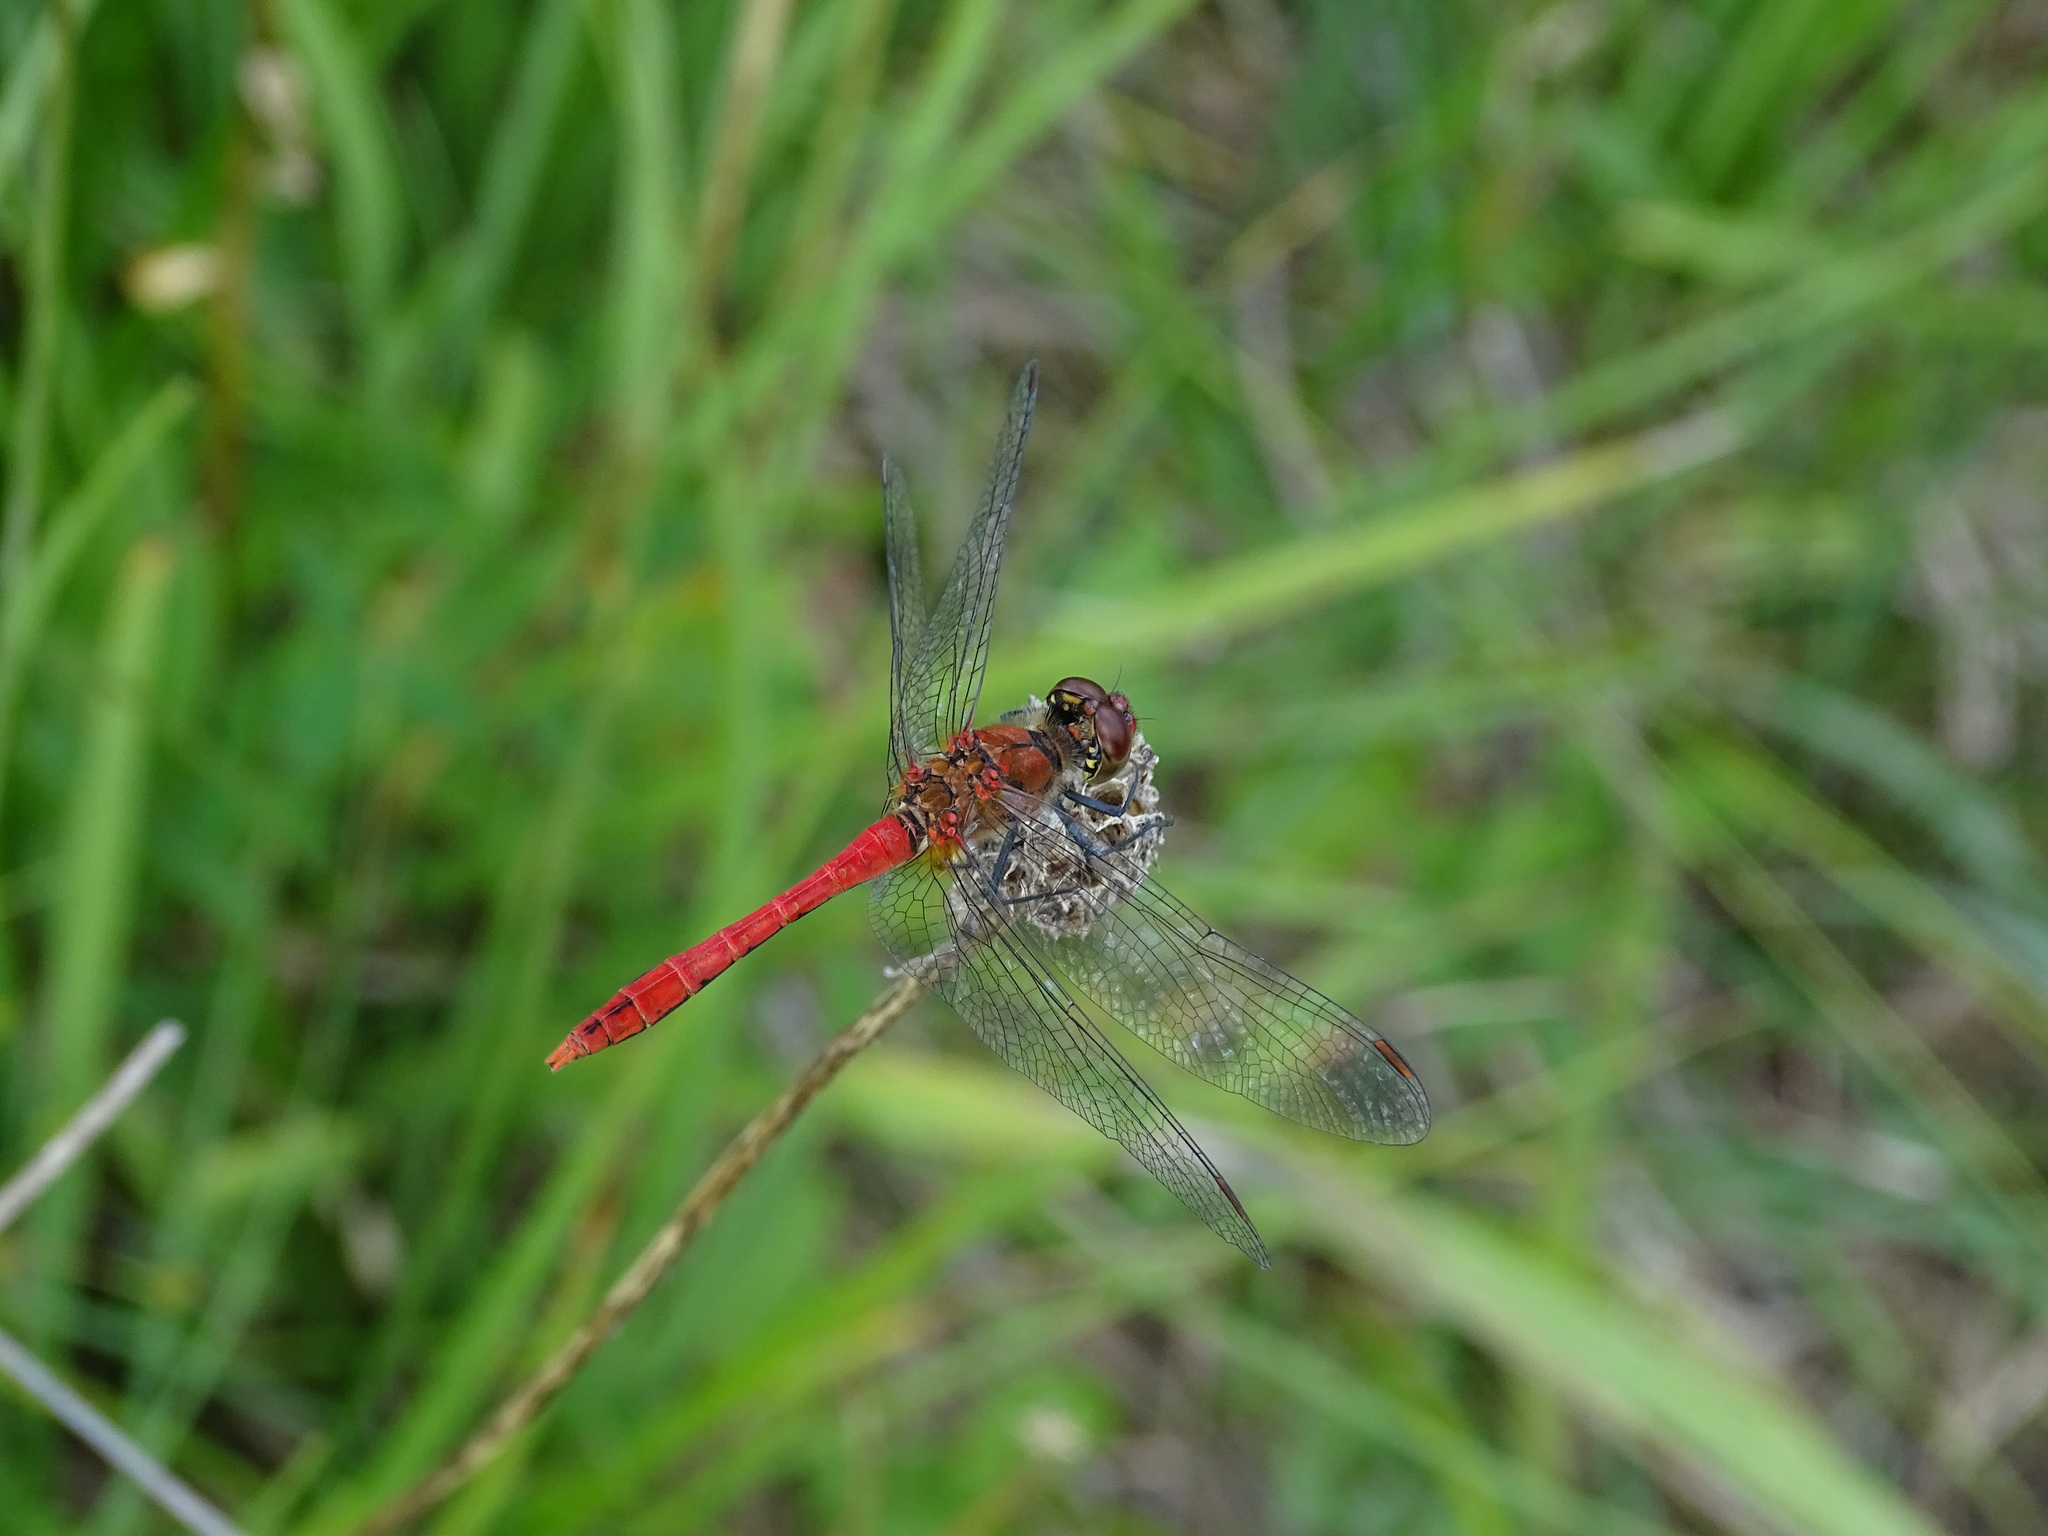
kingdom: Animalia
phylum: Arthropoda
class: Insecta
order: Odonata
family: Libellulidae
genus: Sympetrum
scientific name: Sympetrum sanguineum
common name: Ruddy darter
